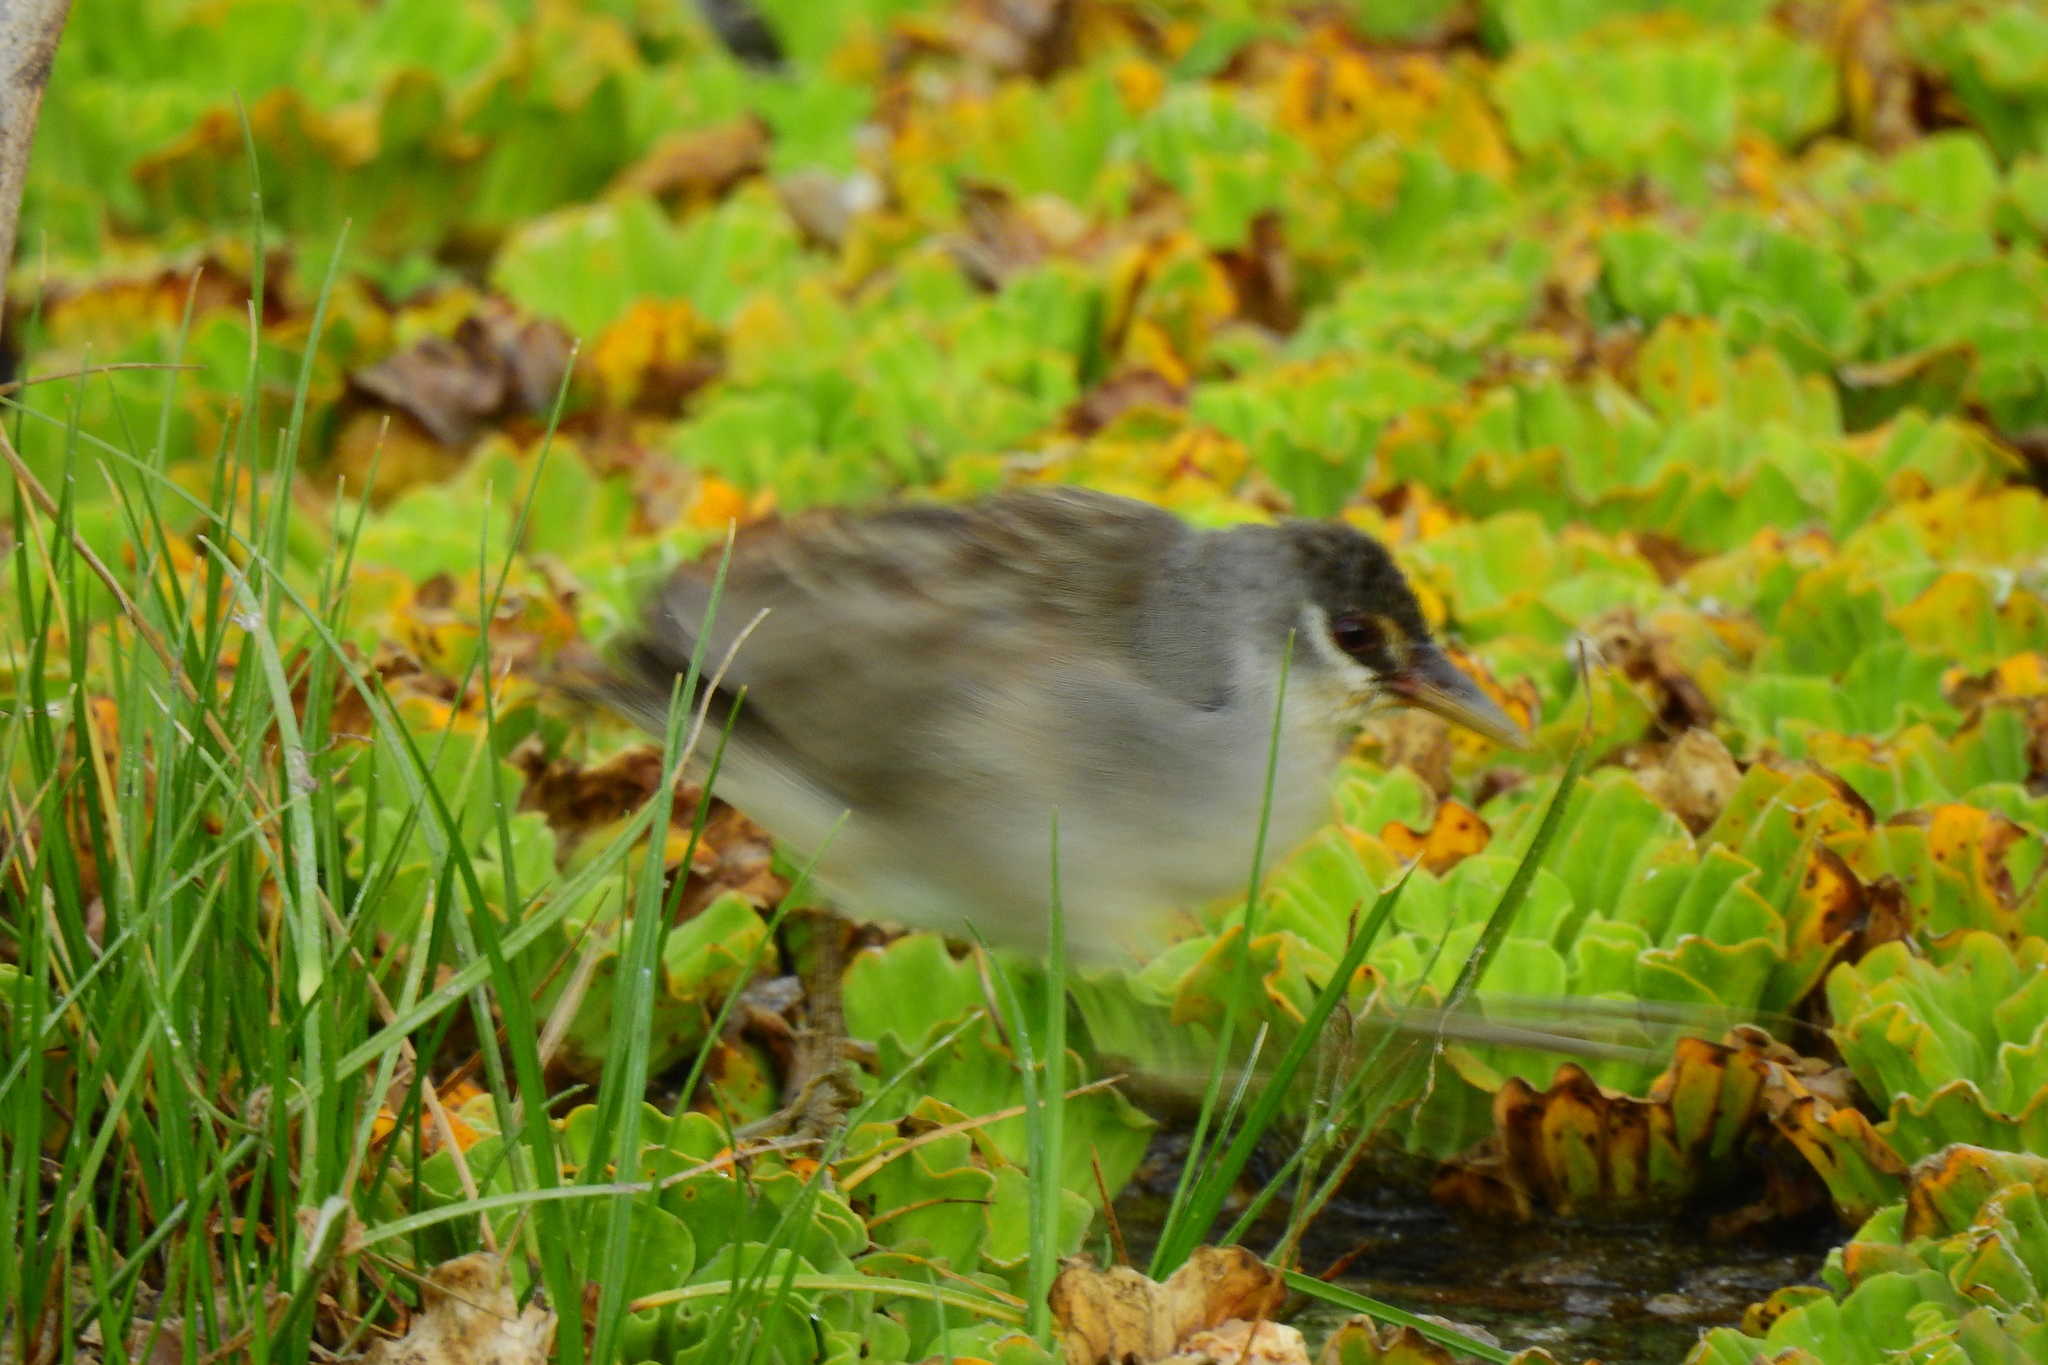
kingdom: Animalia
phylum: Chordata
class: Aves
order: Gruiformes
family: Rallidae
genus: Porzana
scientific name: Porzana cinerea
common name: White-browed crake
